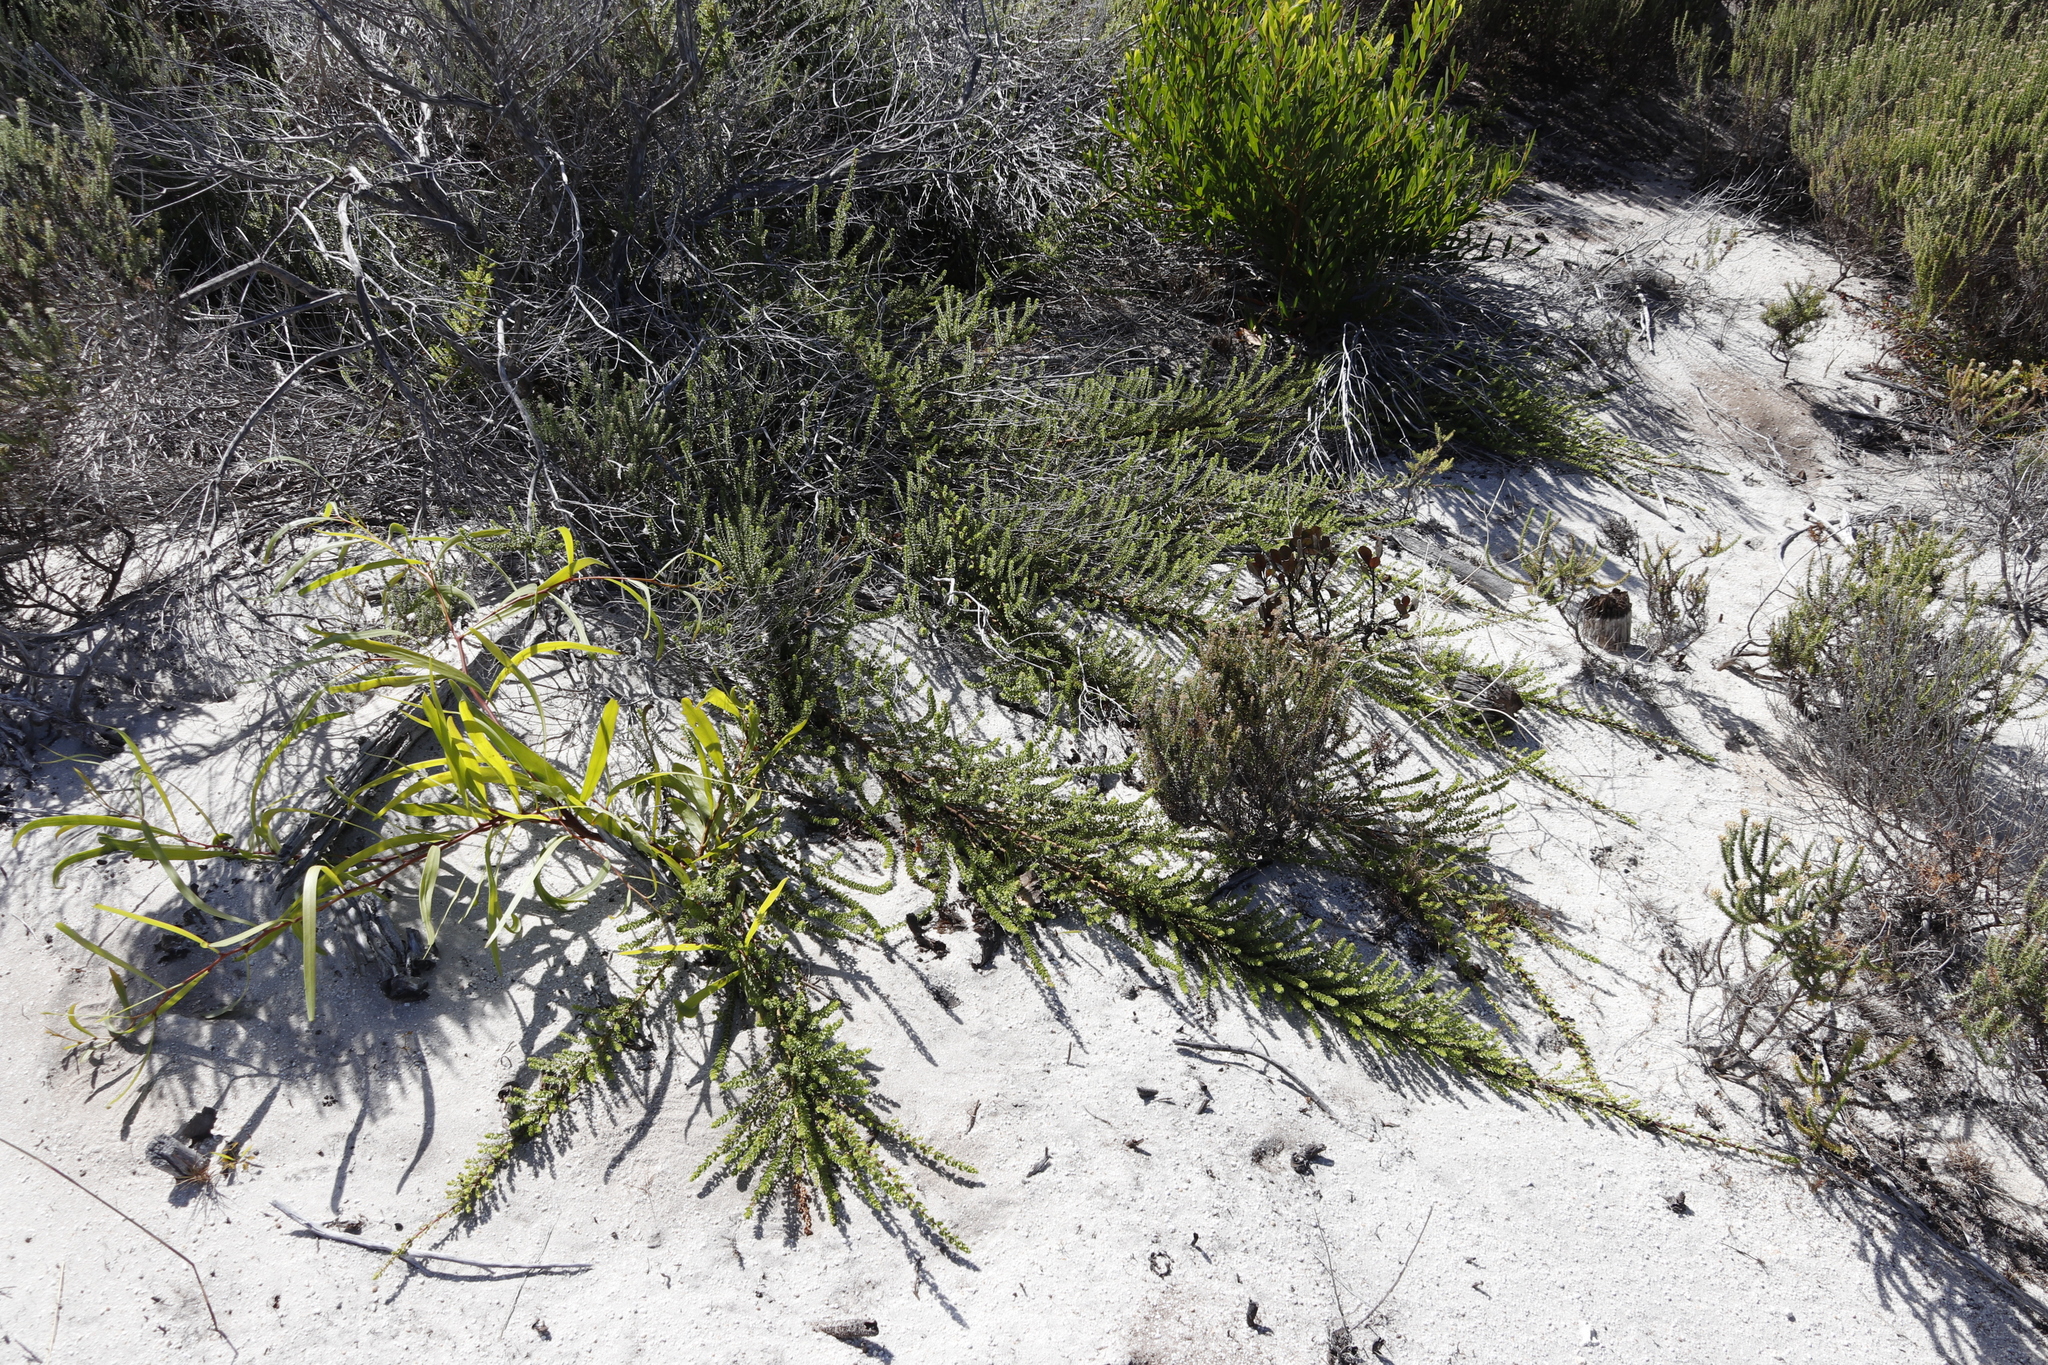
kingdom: Plantae
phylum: Tracheophyta
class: Magnoliopsida
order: Fagales
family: Myricaceae
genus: Morella
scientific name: Morella cordifolia
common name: Waxberry
